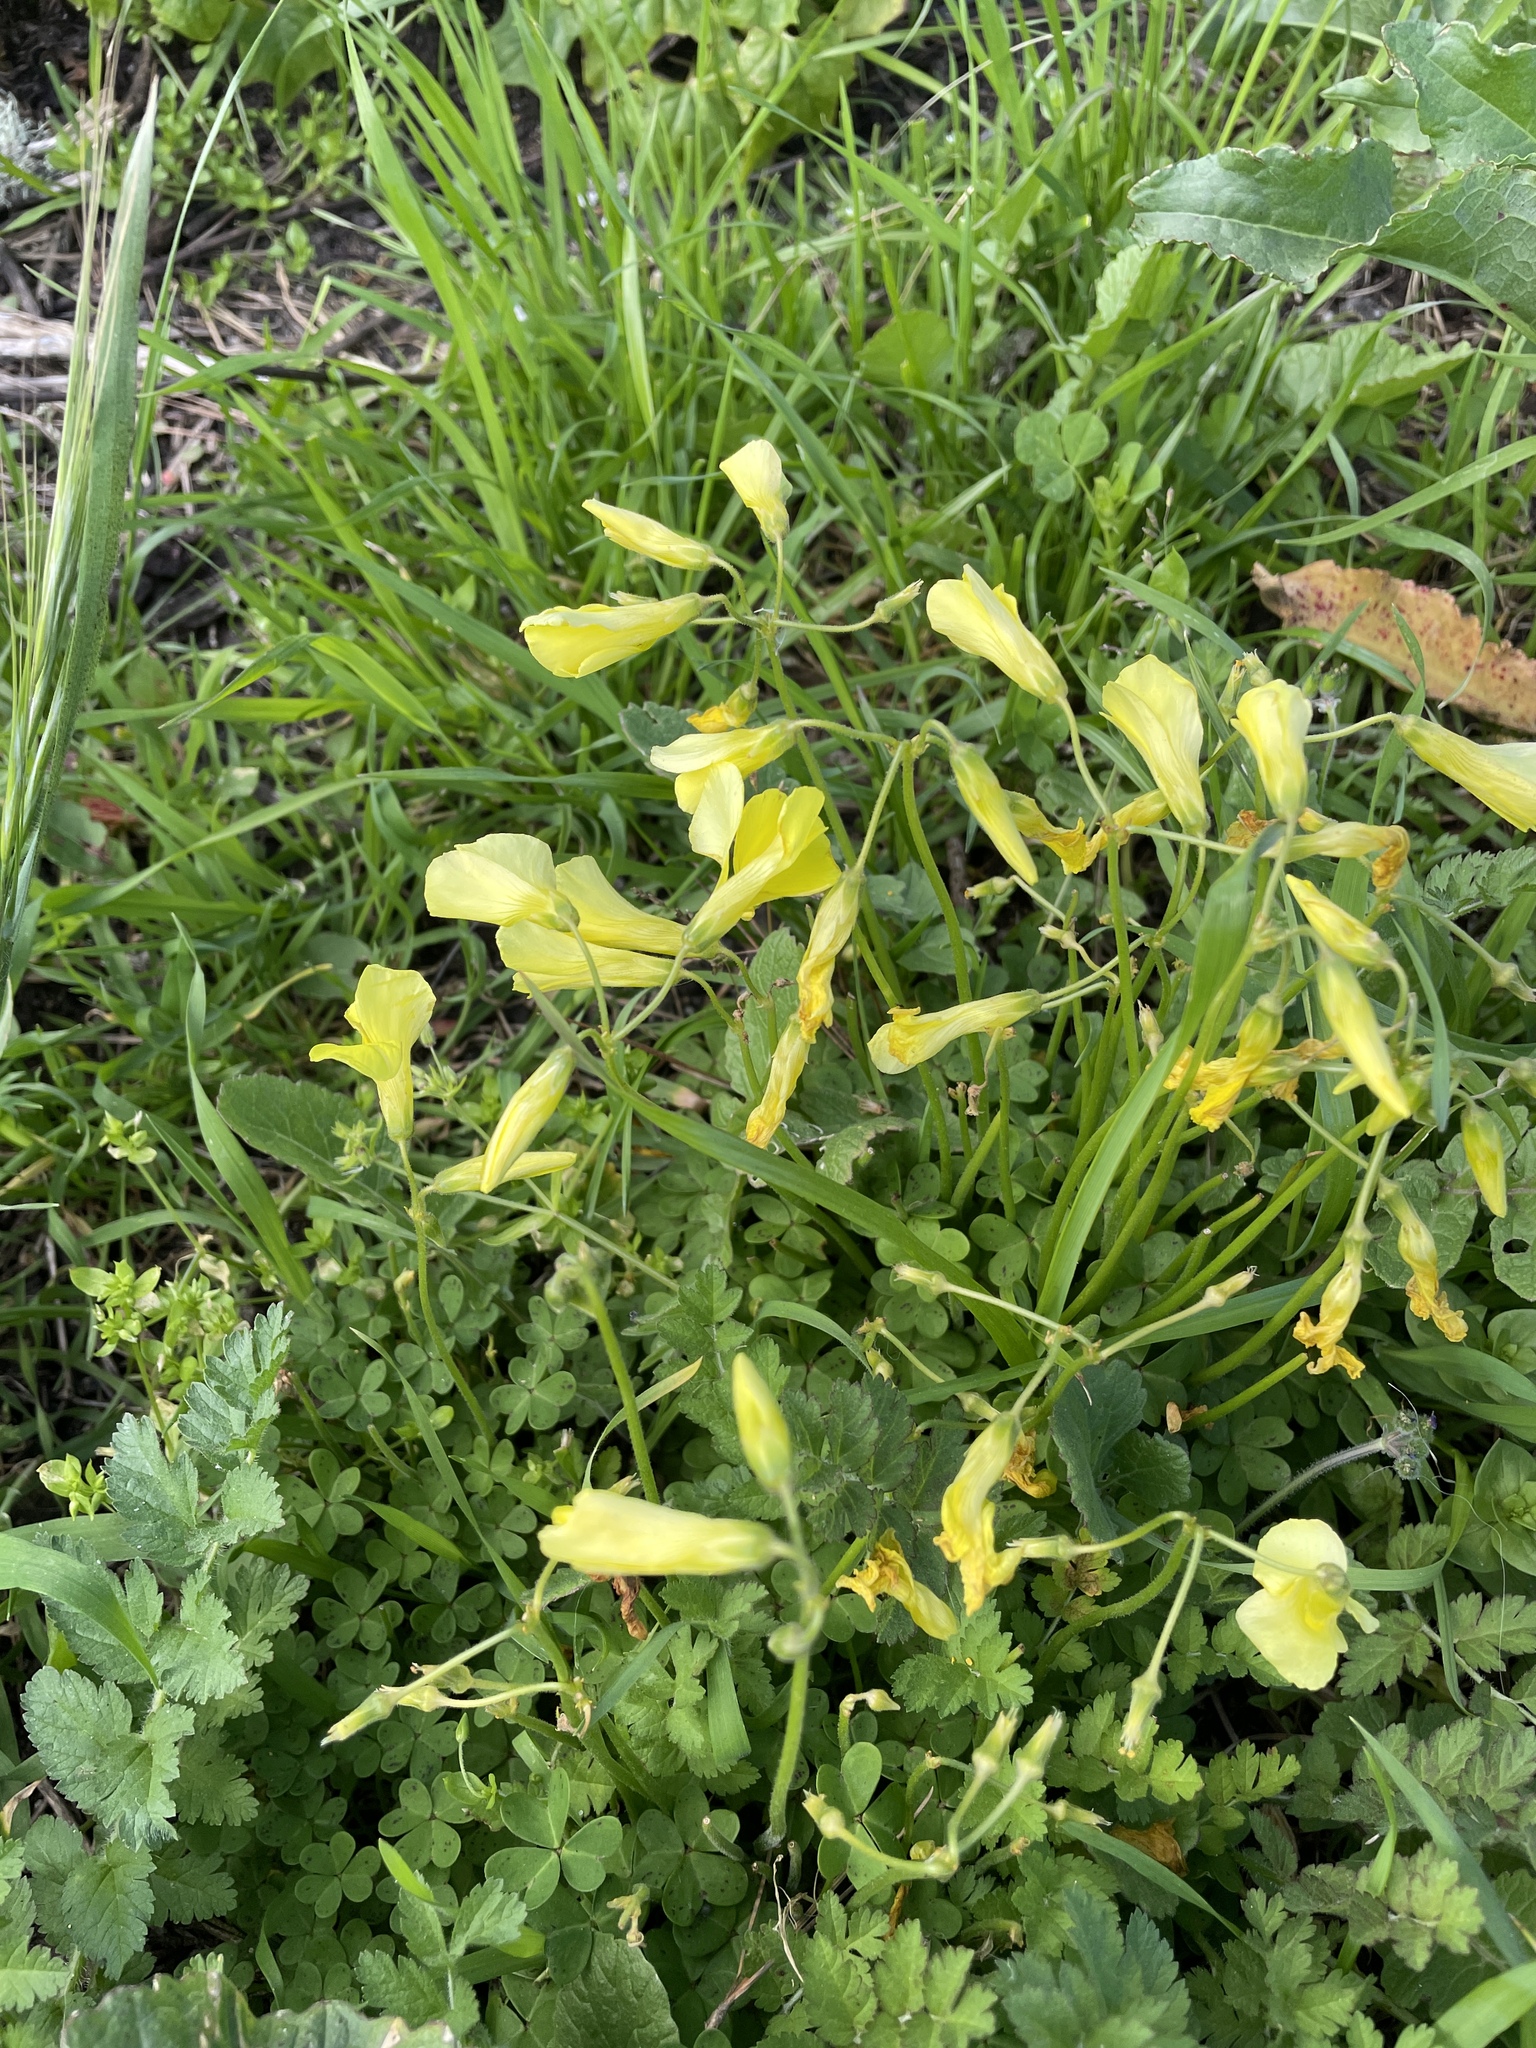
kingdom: Plantae
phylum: Tracheophyta
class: Magnoliopsida
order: Oxalidales
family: Oxalidaceae
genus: Oxalis
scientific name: Oxalis pes-caprae
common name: Bermuda-buttercup
